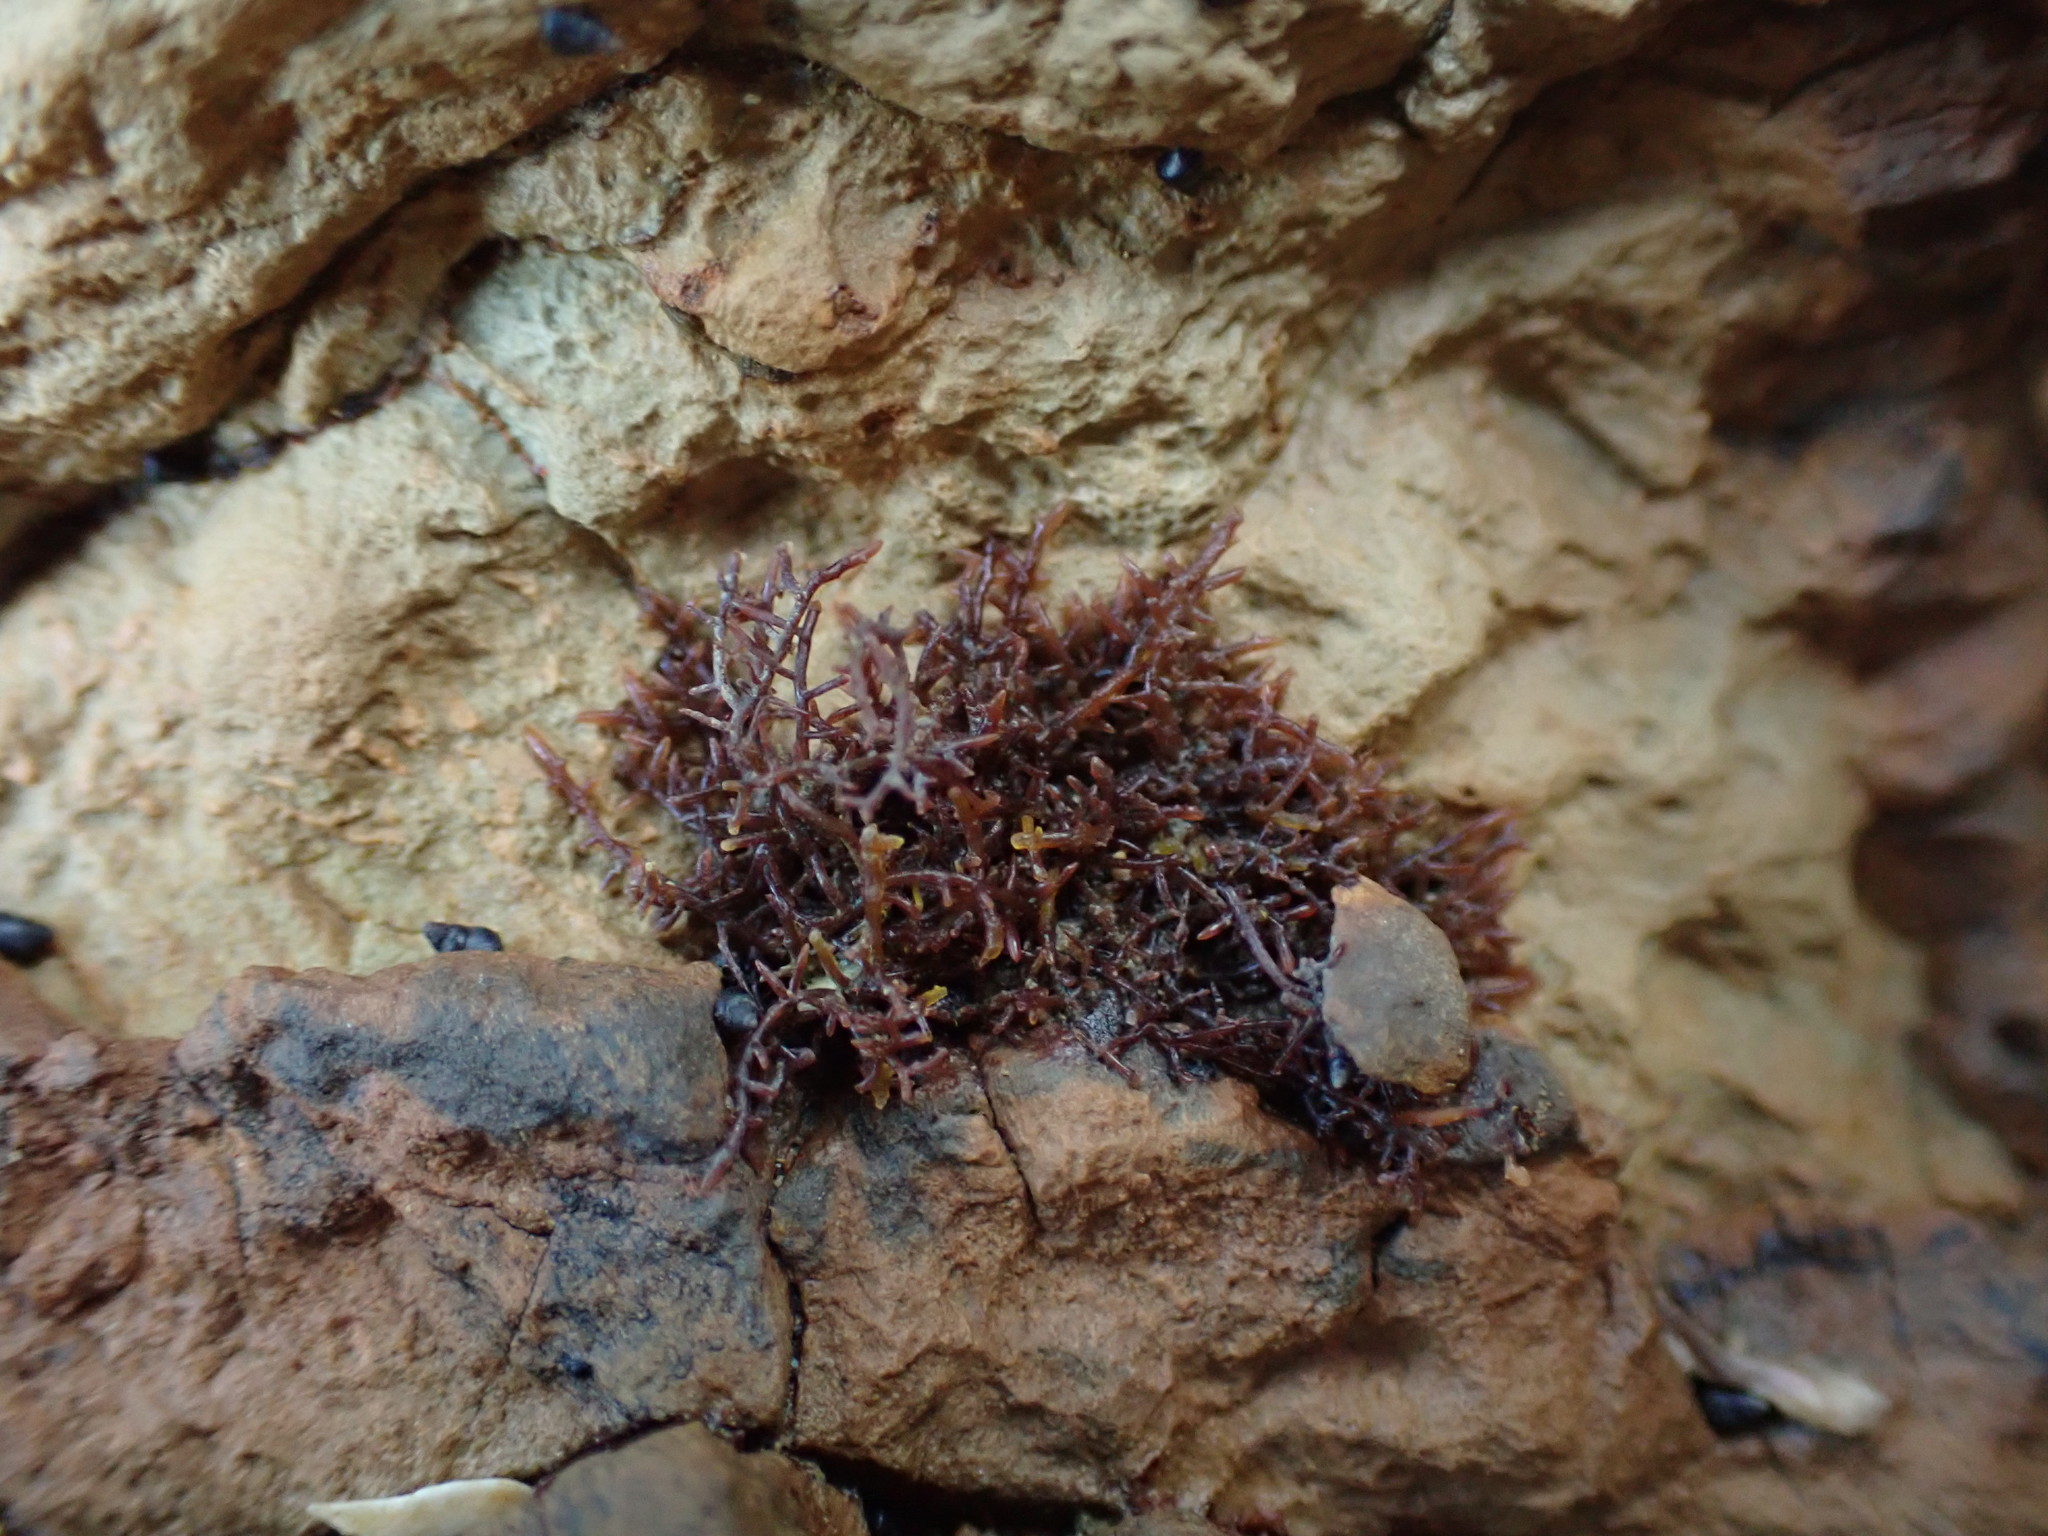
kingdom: Plantae
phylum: Rhodophyta
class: Florideophyceae
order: Gelidiales
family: Gelidiaceae
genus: Capreolia
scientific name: Capreolia implexa
